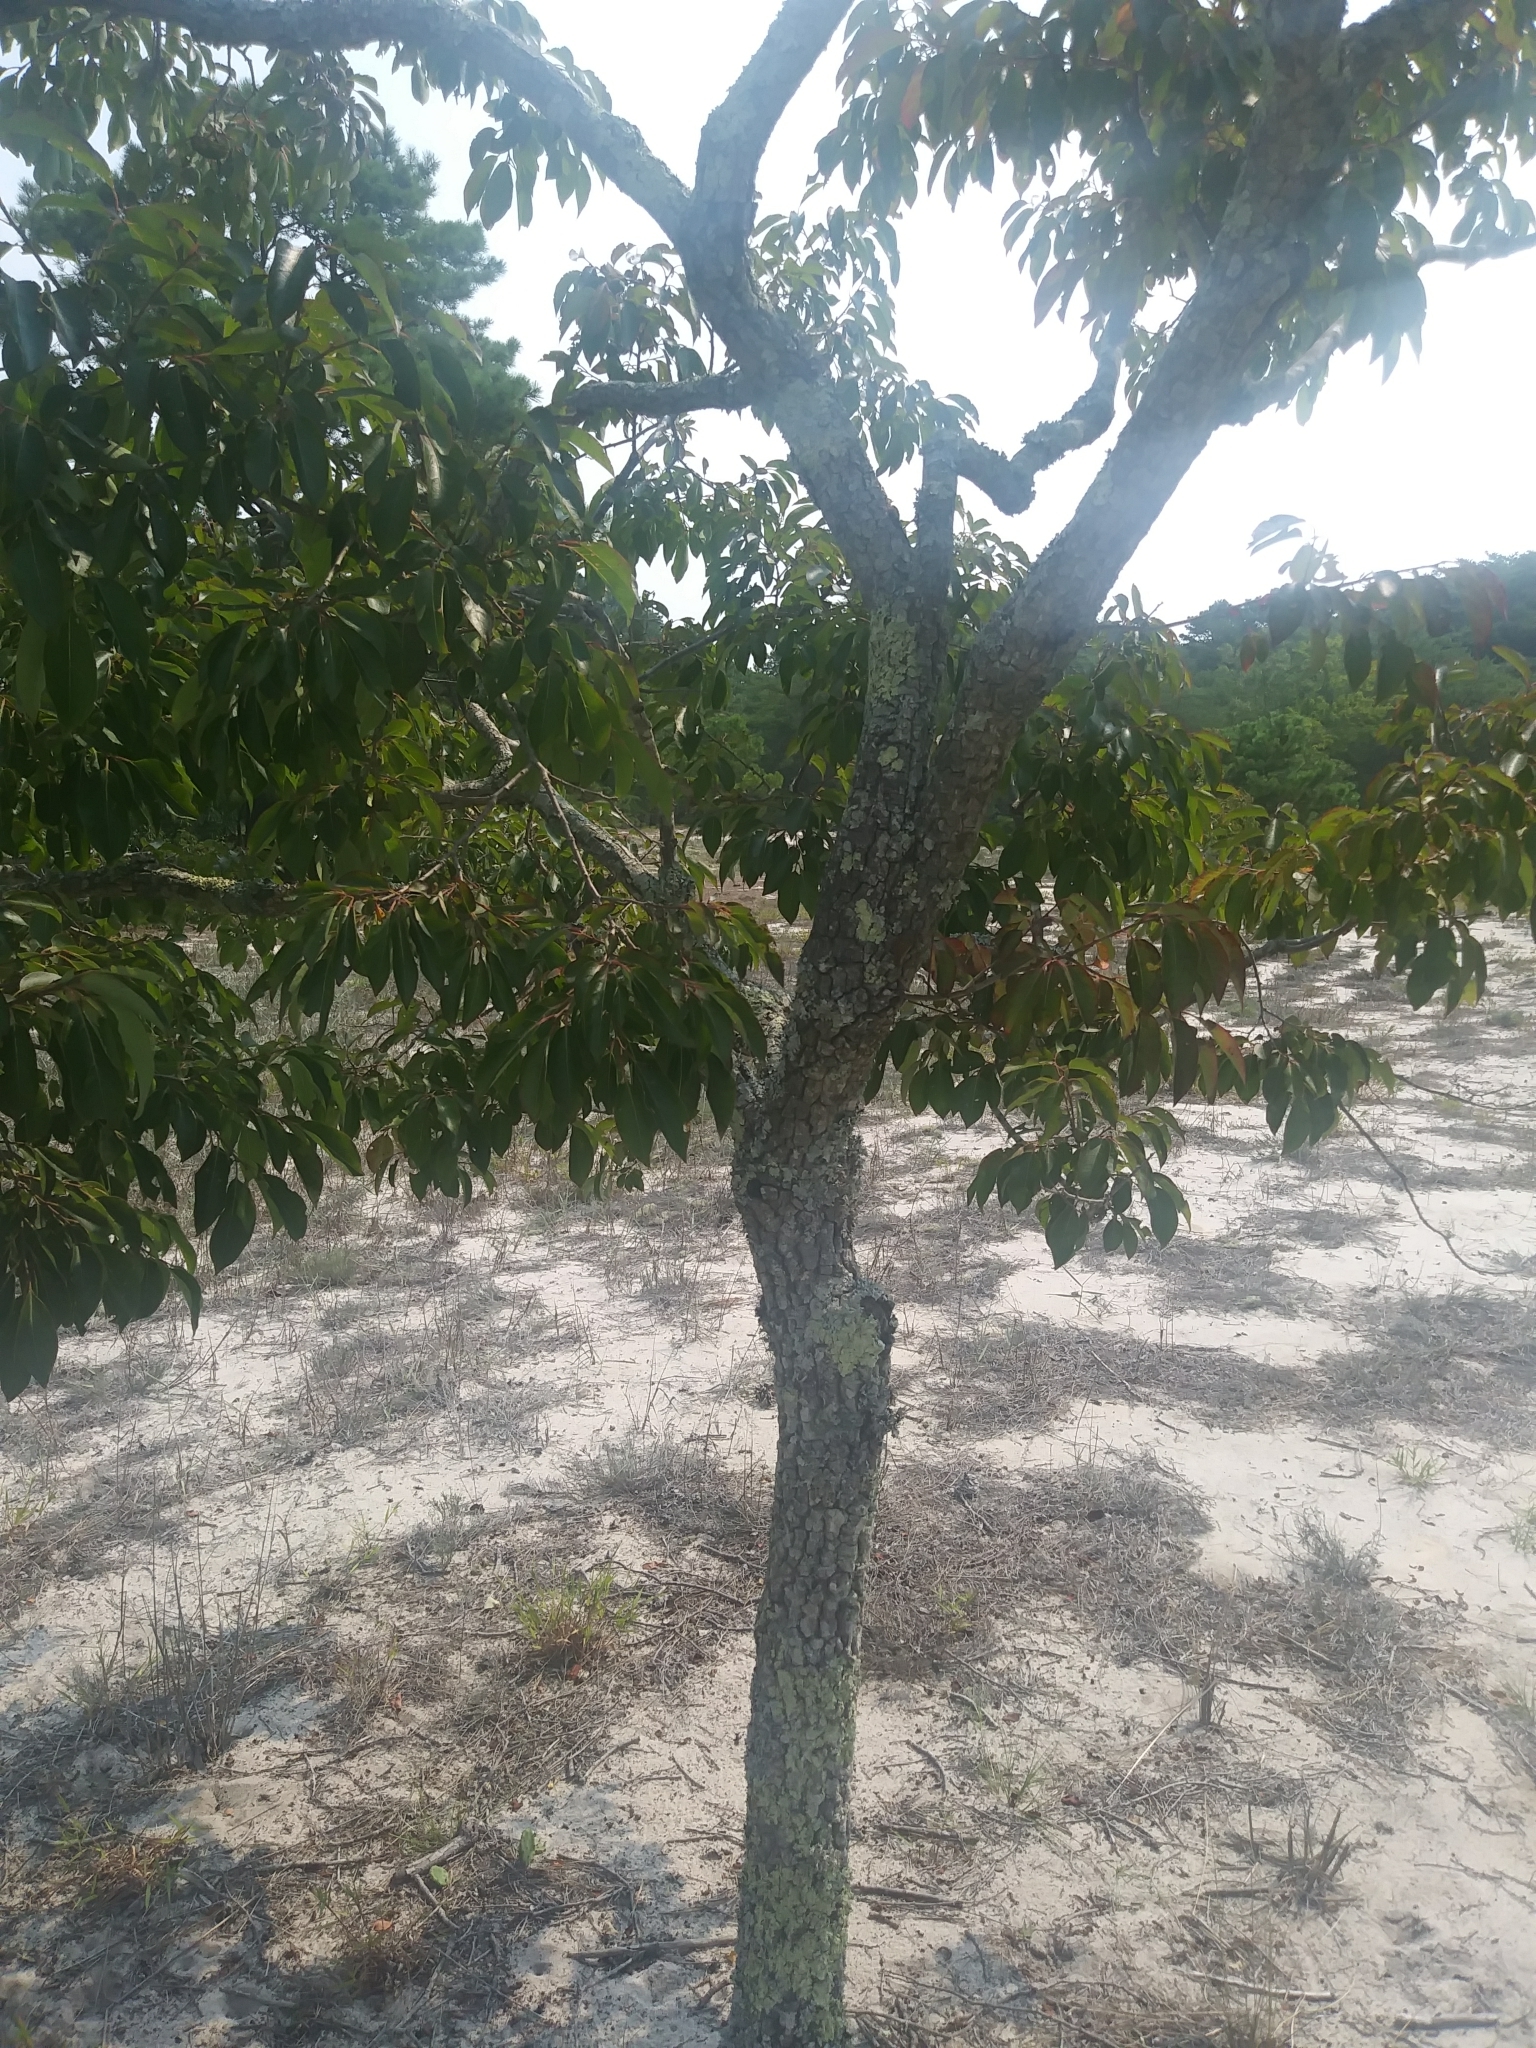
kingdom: Plantae
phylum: Tracheophyta
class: Magnoliopsida
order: Ericales
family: Ebenaceae
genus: Diospyros
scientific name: Diospyros virginiana
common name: Persimmon
